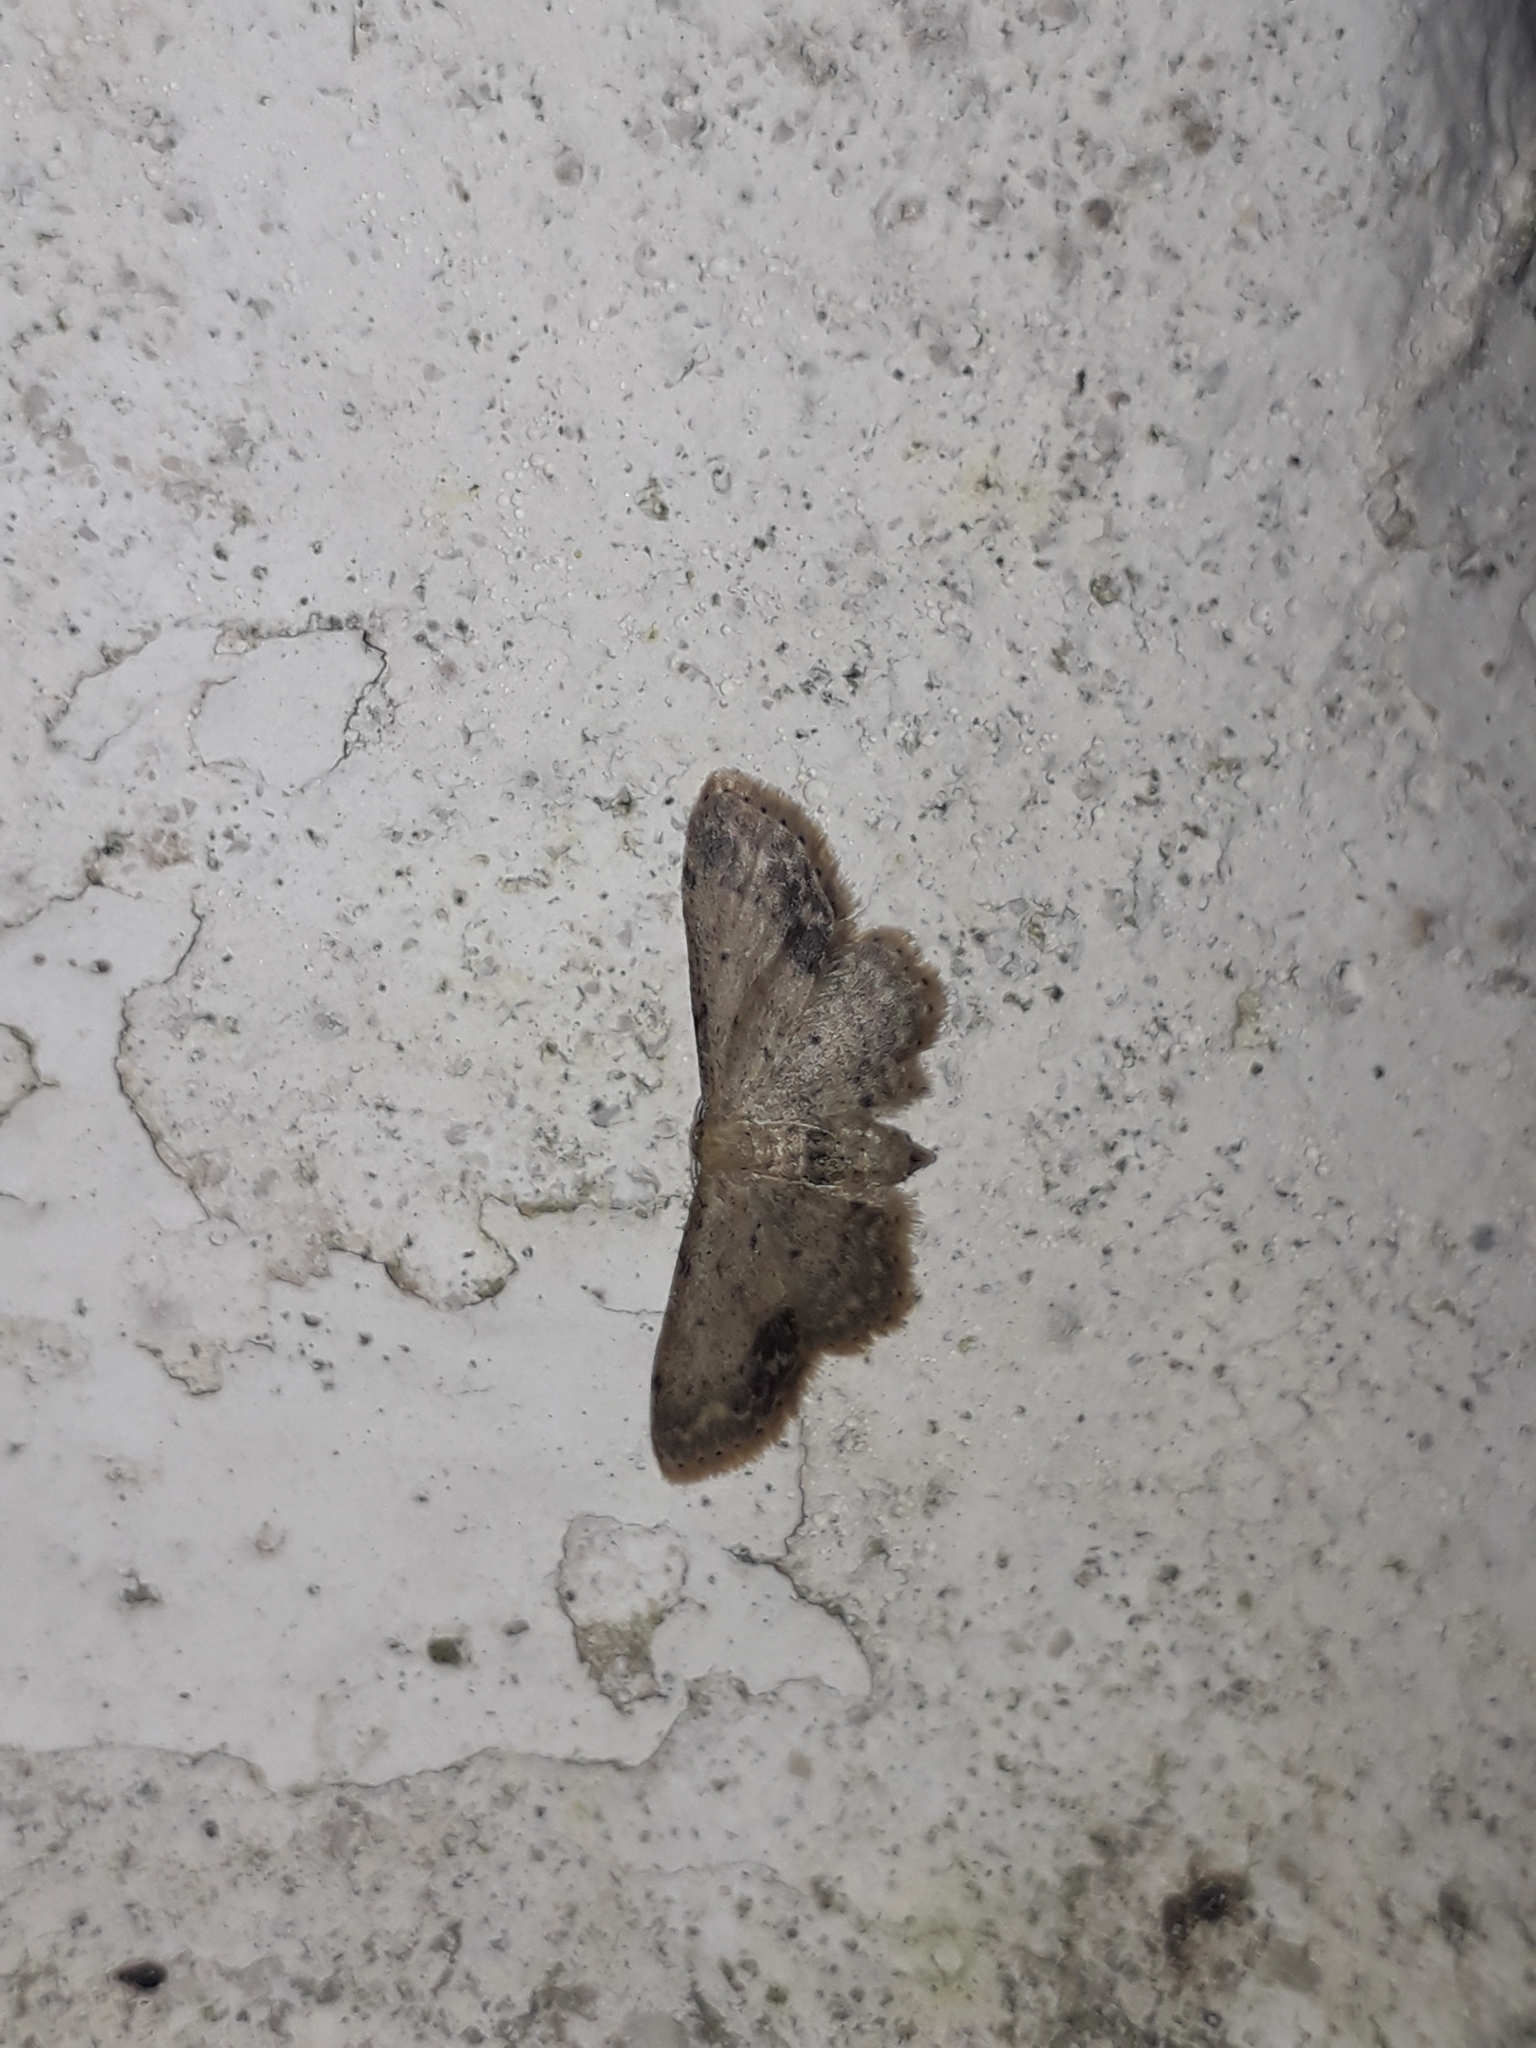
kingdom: Animalia
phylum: Arthropoda
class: Insecta
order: Lepidoptera
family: Geometridae
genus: Idaea
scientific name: Idaea dimidiata
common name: Single-dotted wave
